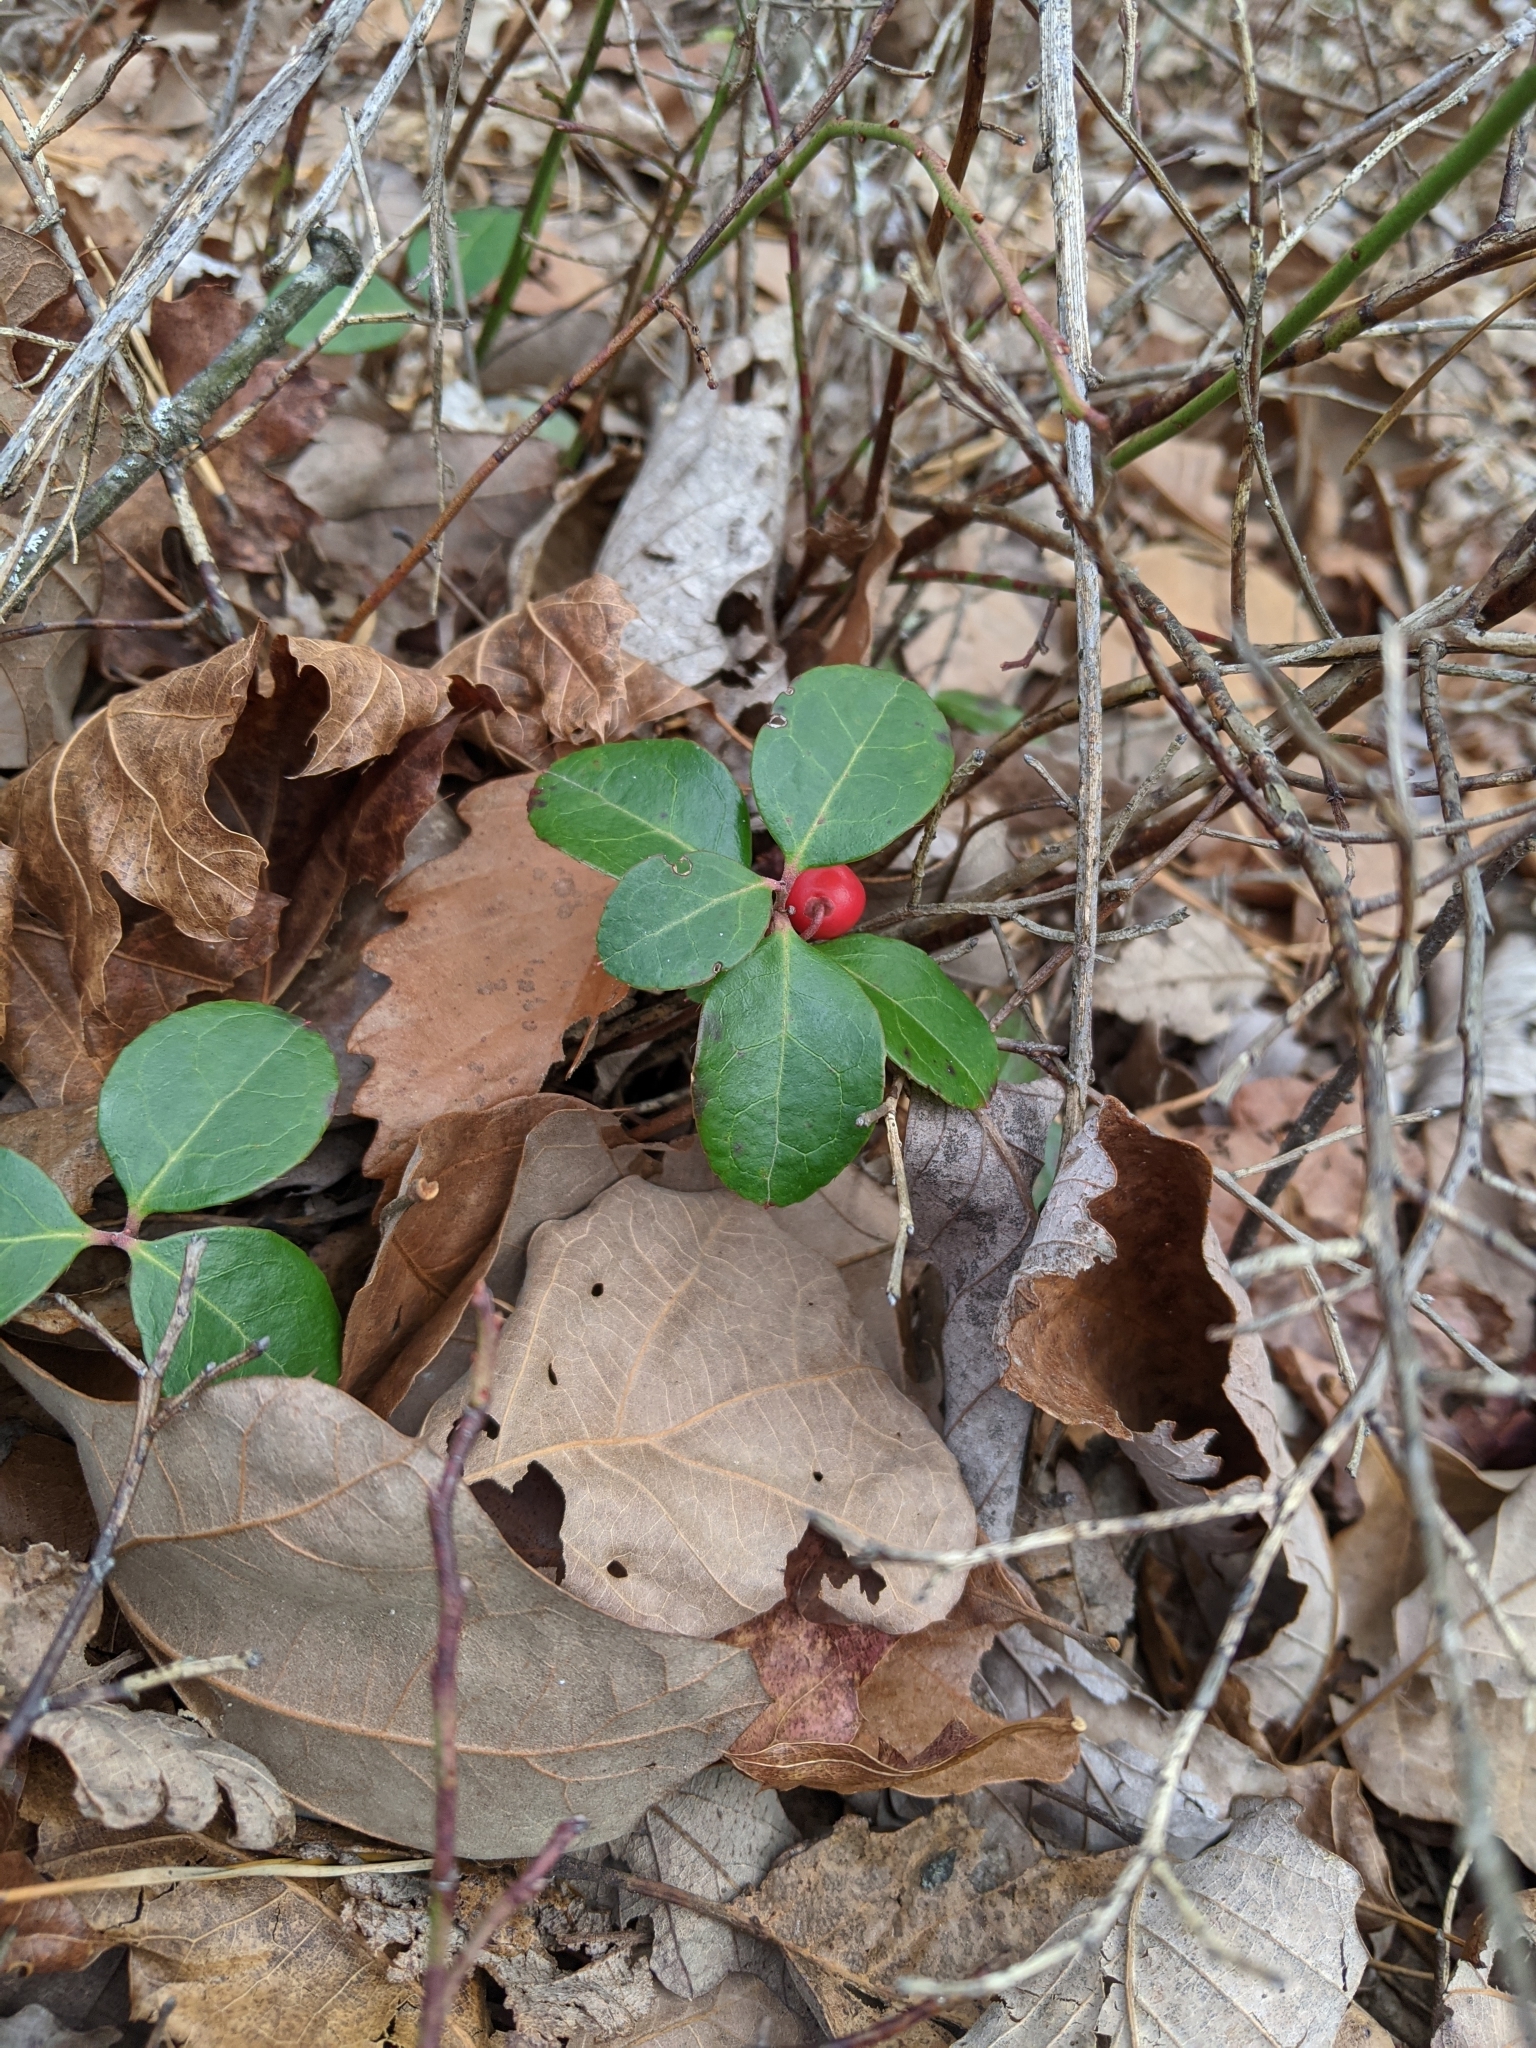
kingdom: Plantae
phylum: Tracheophyta
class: Magnoliopsida
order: Ericales
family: Ericaceae
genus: Gaultheria
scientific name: Gaultheria procumbens
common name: Checkerberry
